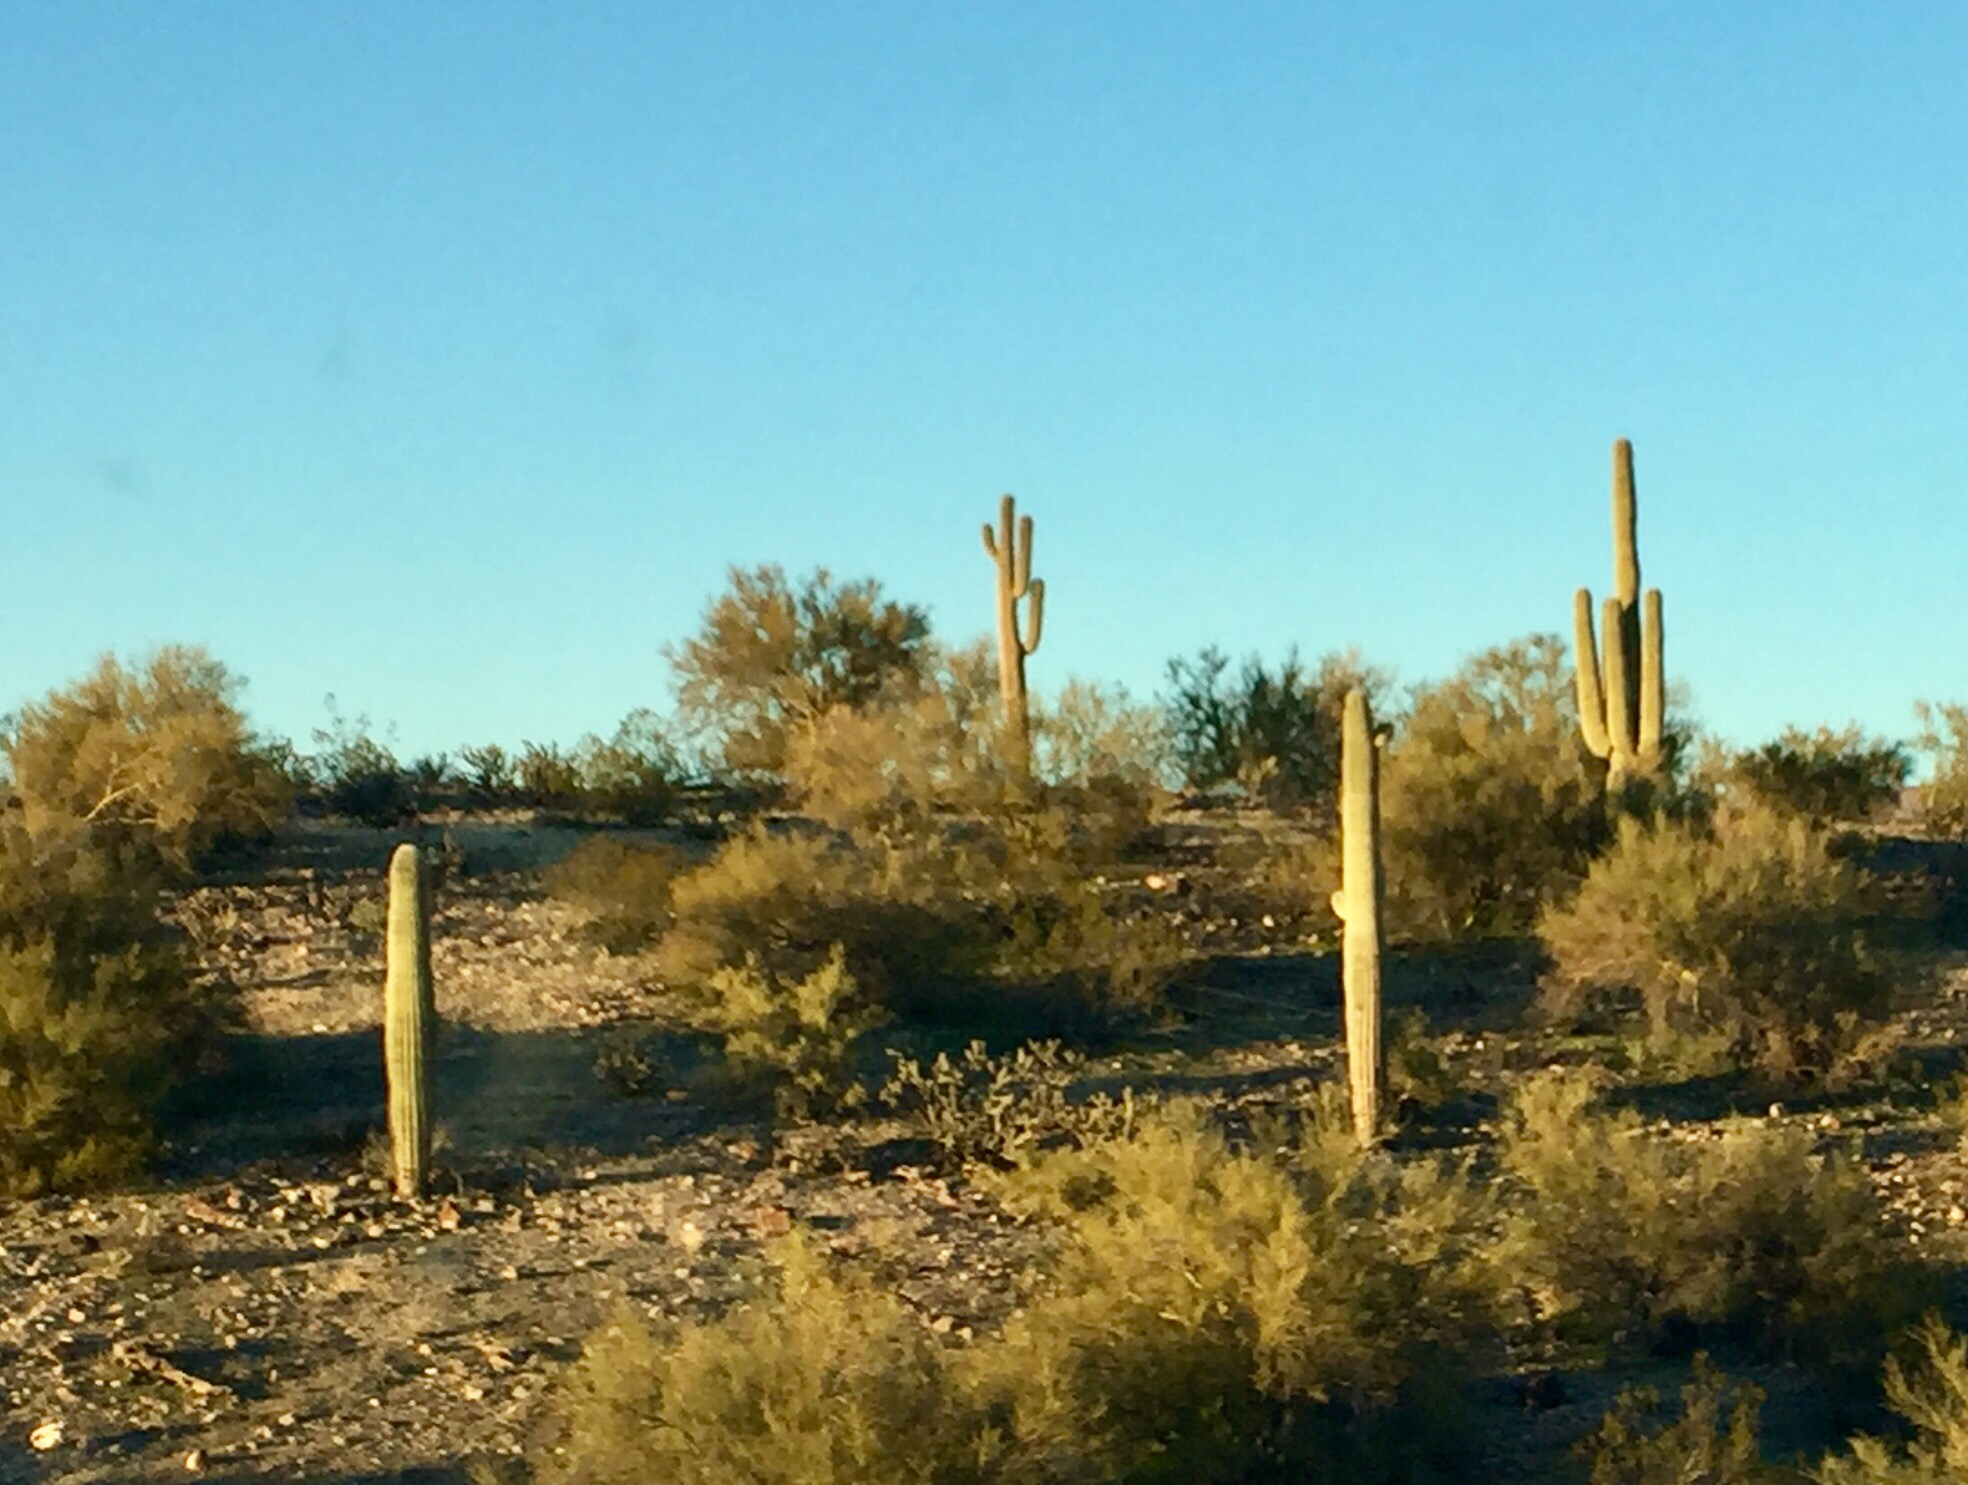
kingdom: Plantae
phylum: Tracheophyta
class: Magnoliopsida
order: Caryophyllales
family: Cactaceae
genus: Carnegiea
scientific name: Carnegiea gigantea
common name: Saguaro
